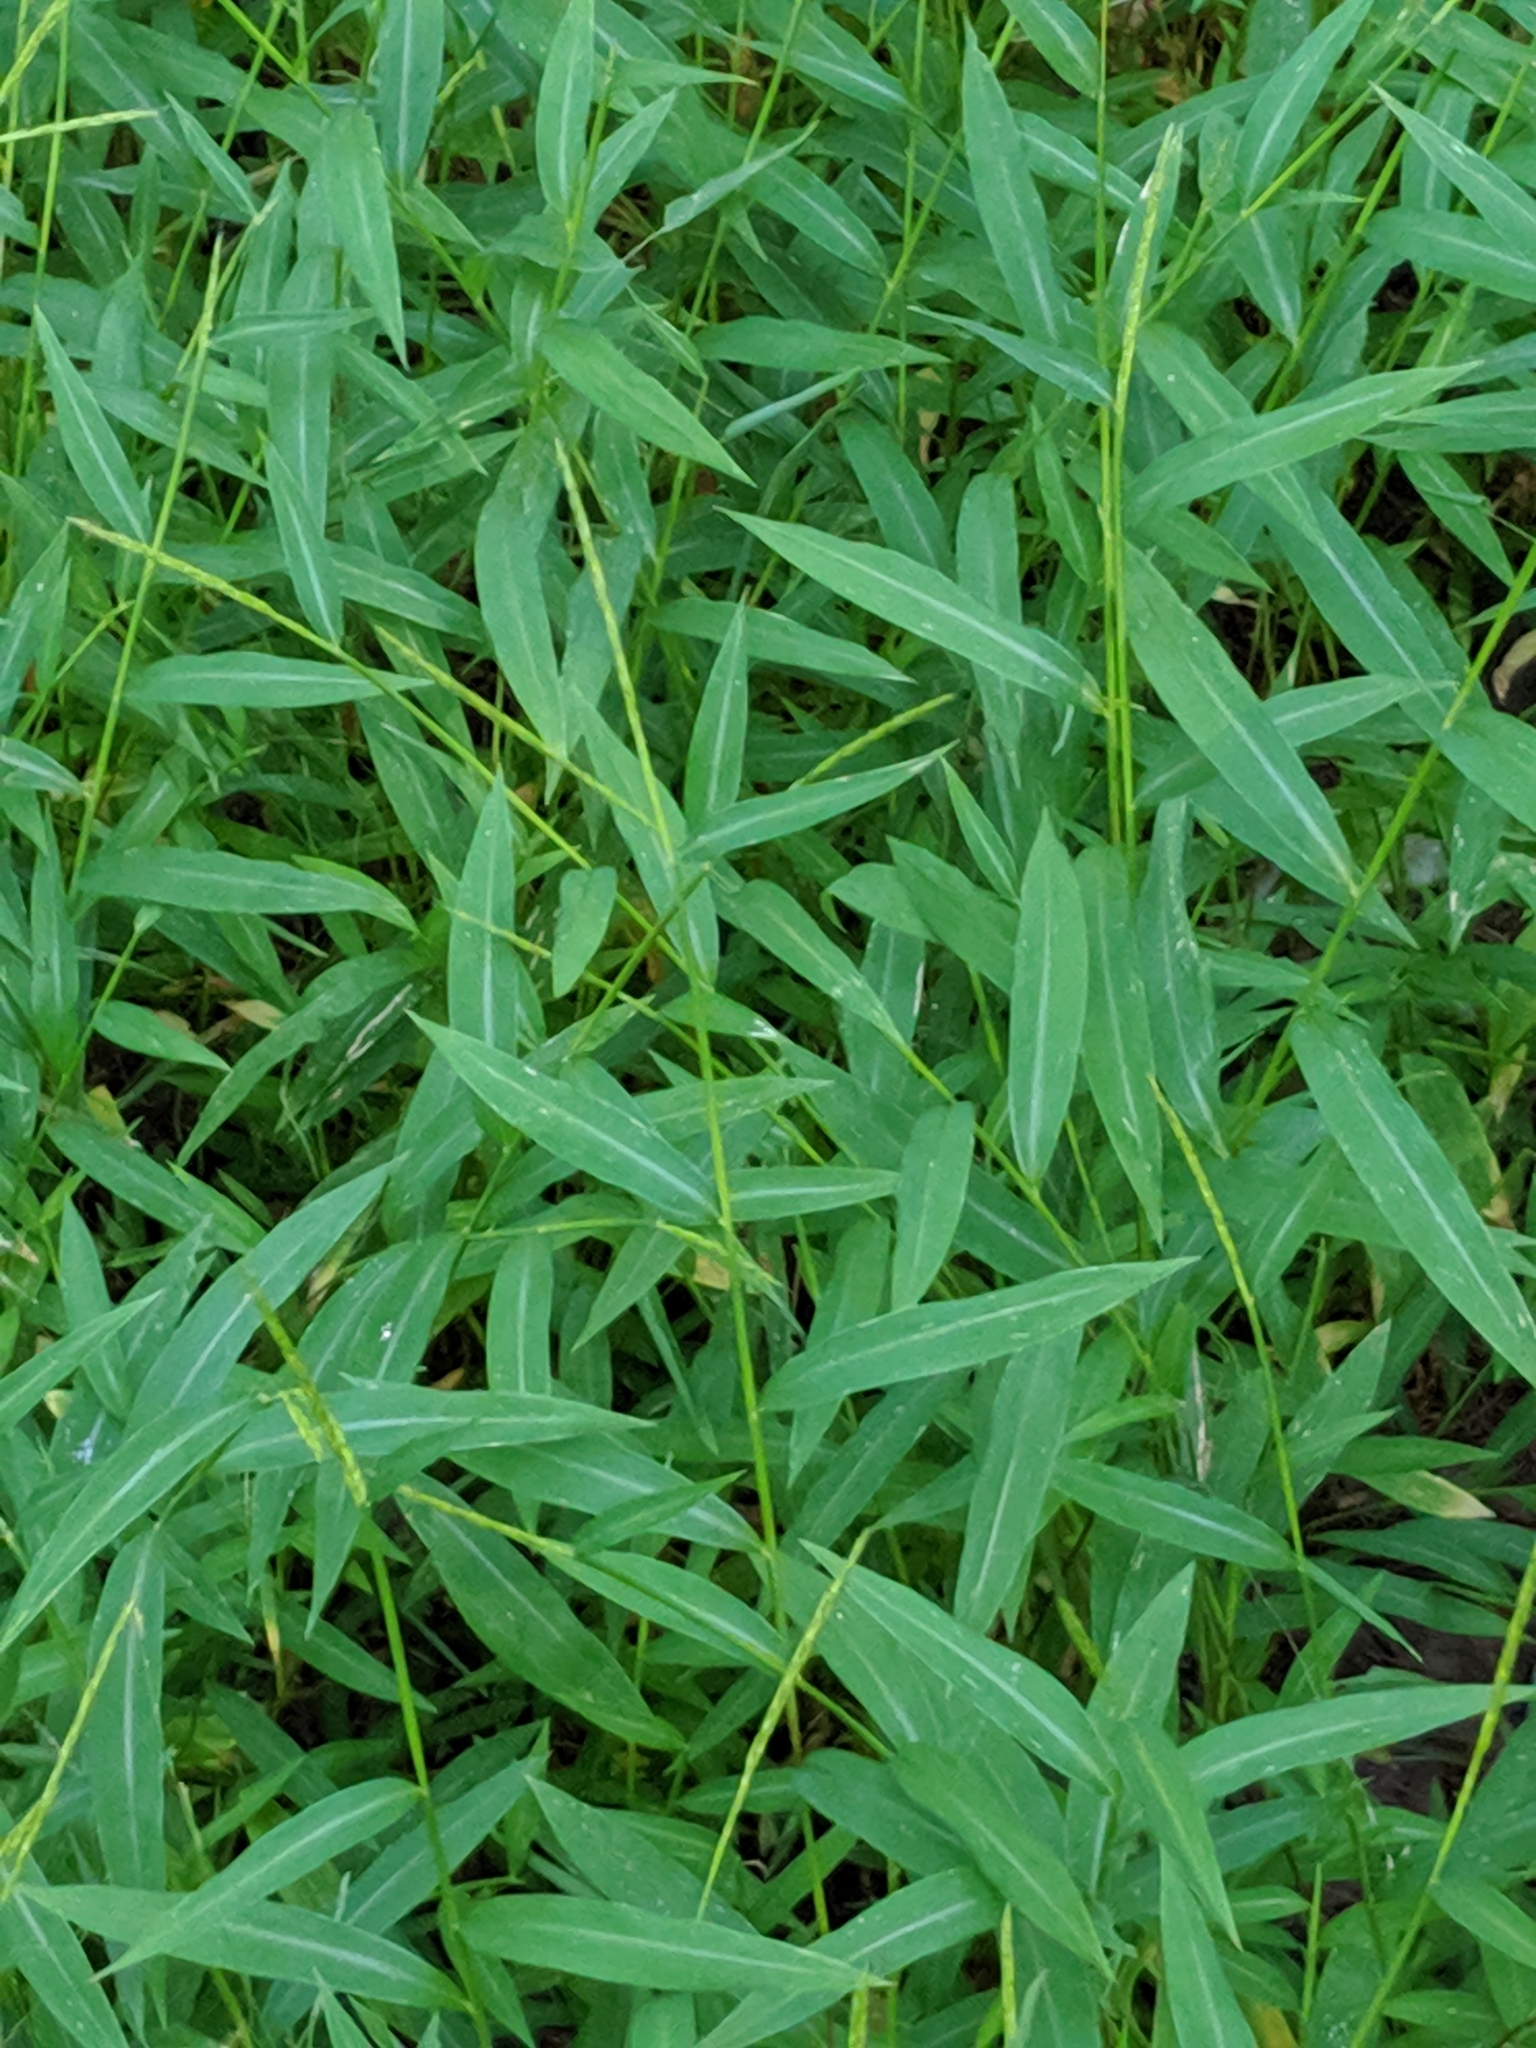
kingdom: Plantae
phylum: Tracheophyta
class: Liliopsida
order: Poales
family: Poaceae
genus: Microstegium
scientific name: Microstegium vimineum
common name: Japanese stiltgrass
